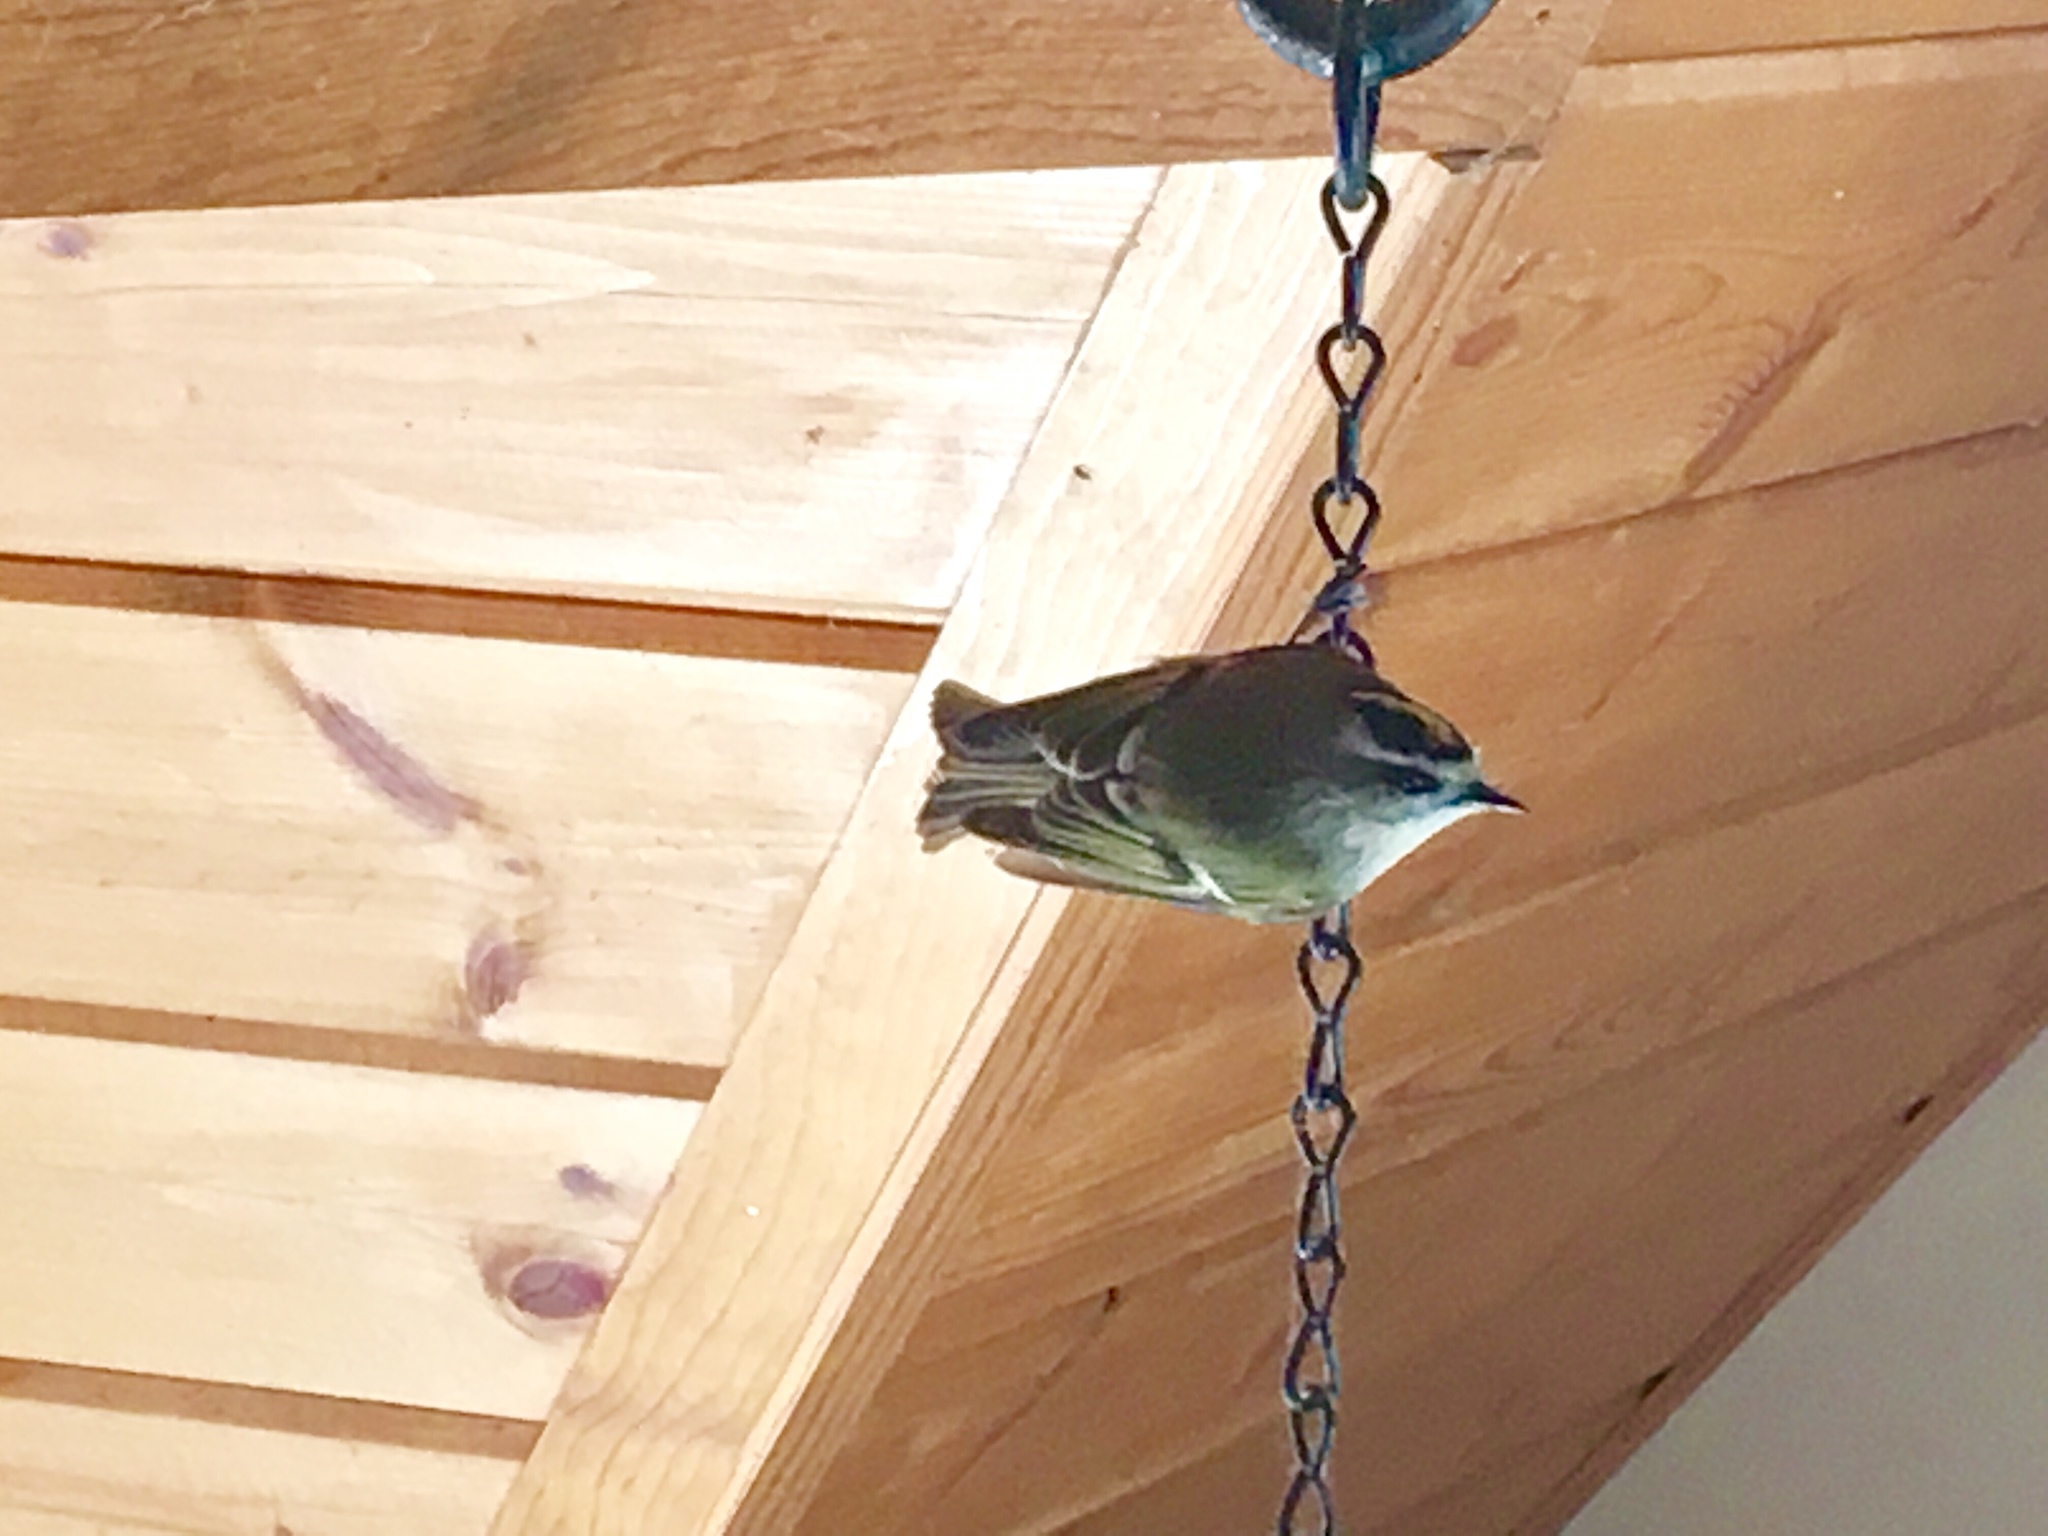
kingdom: Animalia
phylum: Chordata
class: Aves
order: Passeriformes
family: Regulidae
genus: Regulus
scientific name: Regulus satrapa
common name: Golden-crowned kinglet
